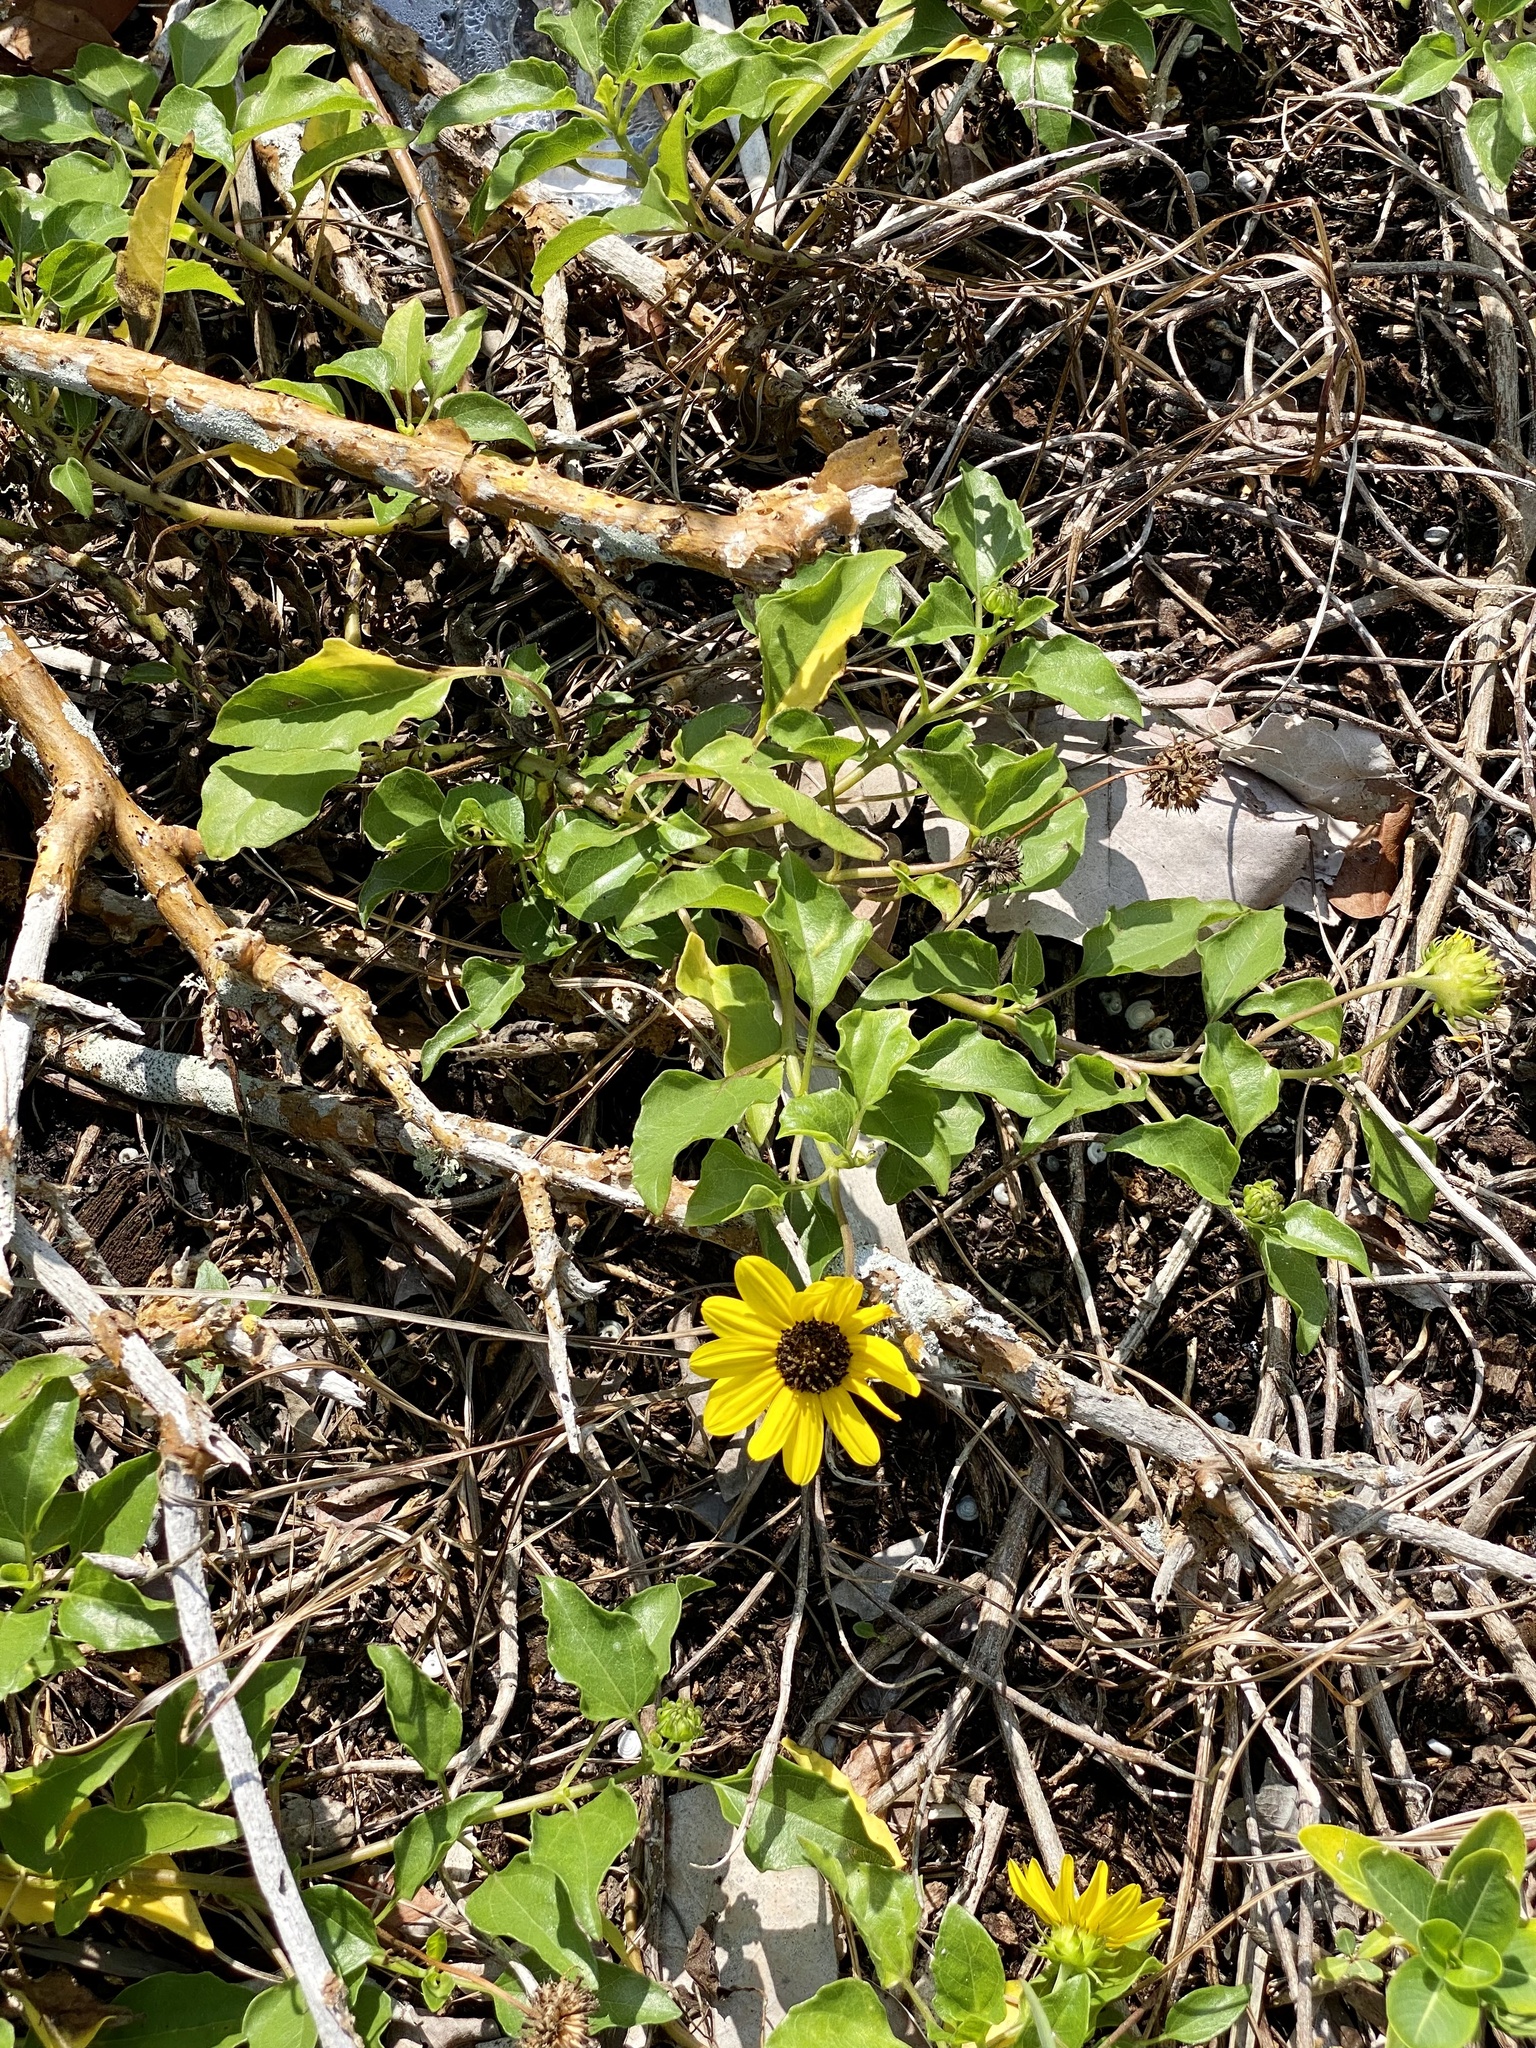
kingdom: Plantae
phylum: Tracheophyta
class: Magnoliopsida
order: Asterales
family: Asteraceae
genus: Helianthus
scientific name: Helianthus debilis
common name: Weak sunflower
